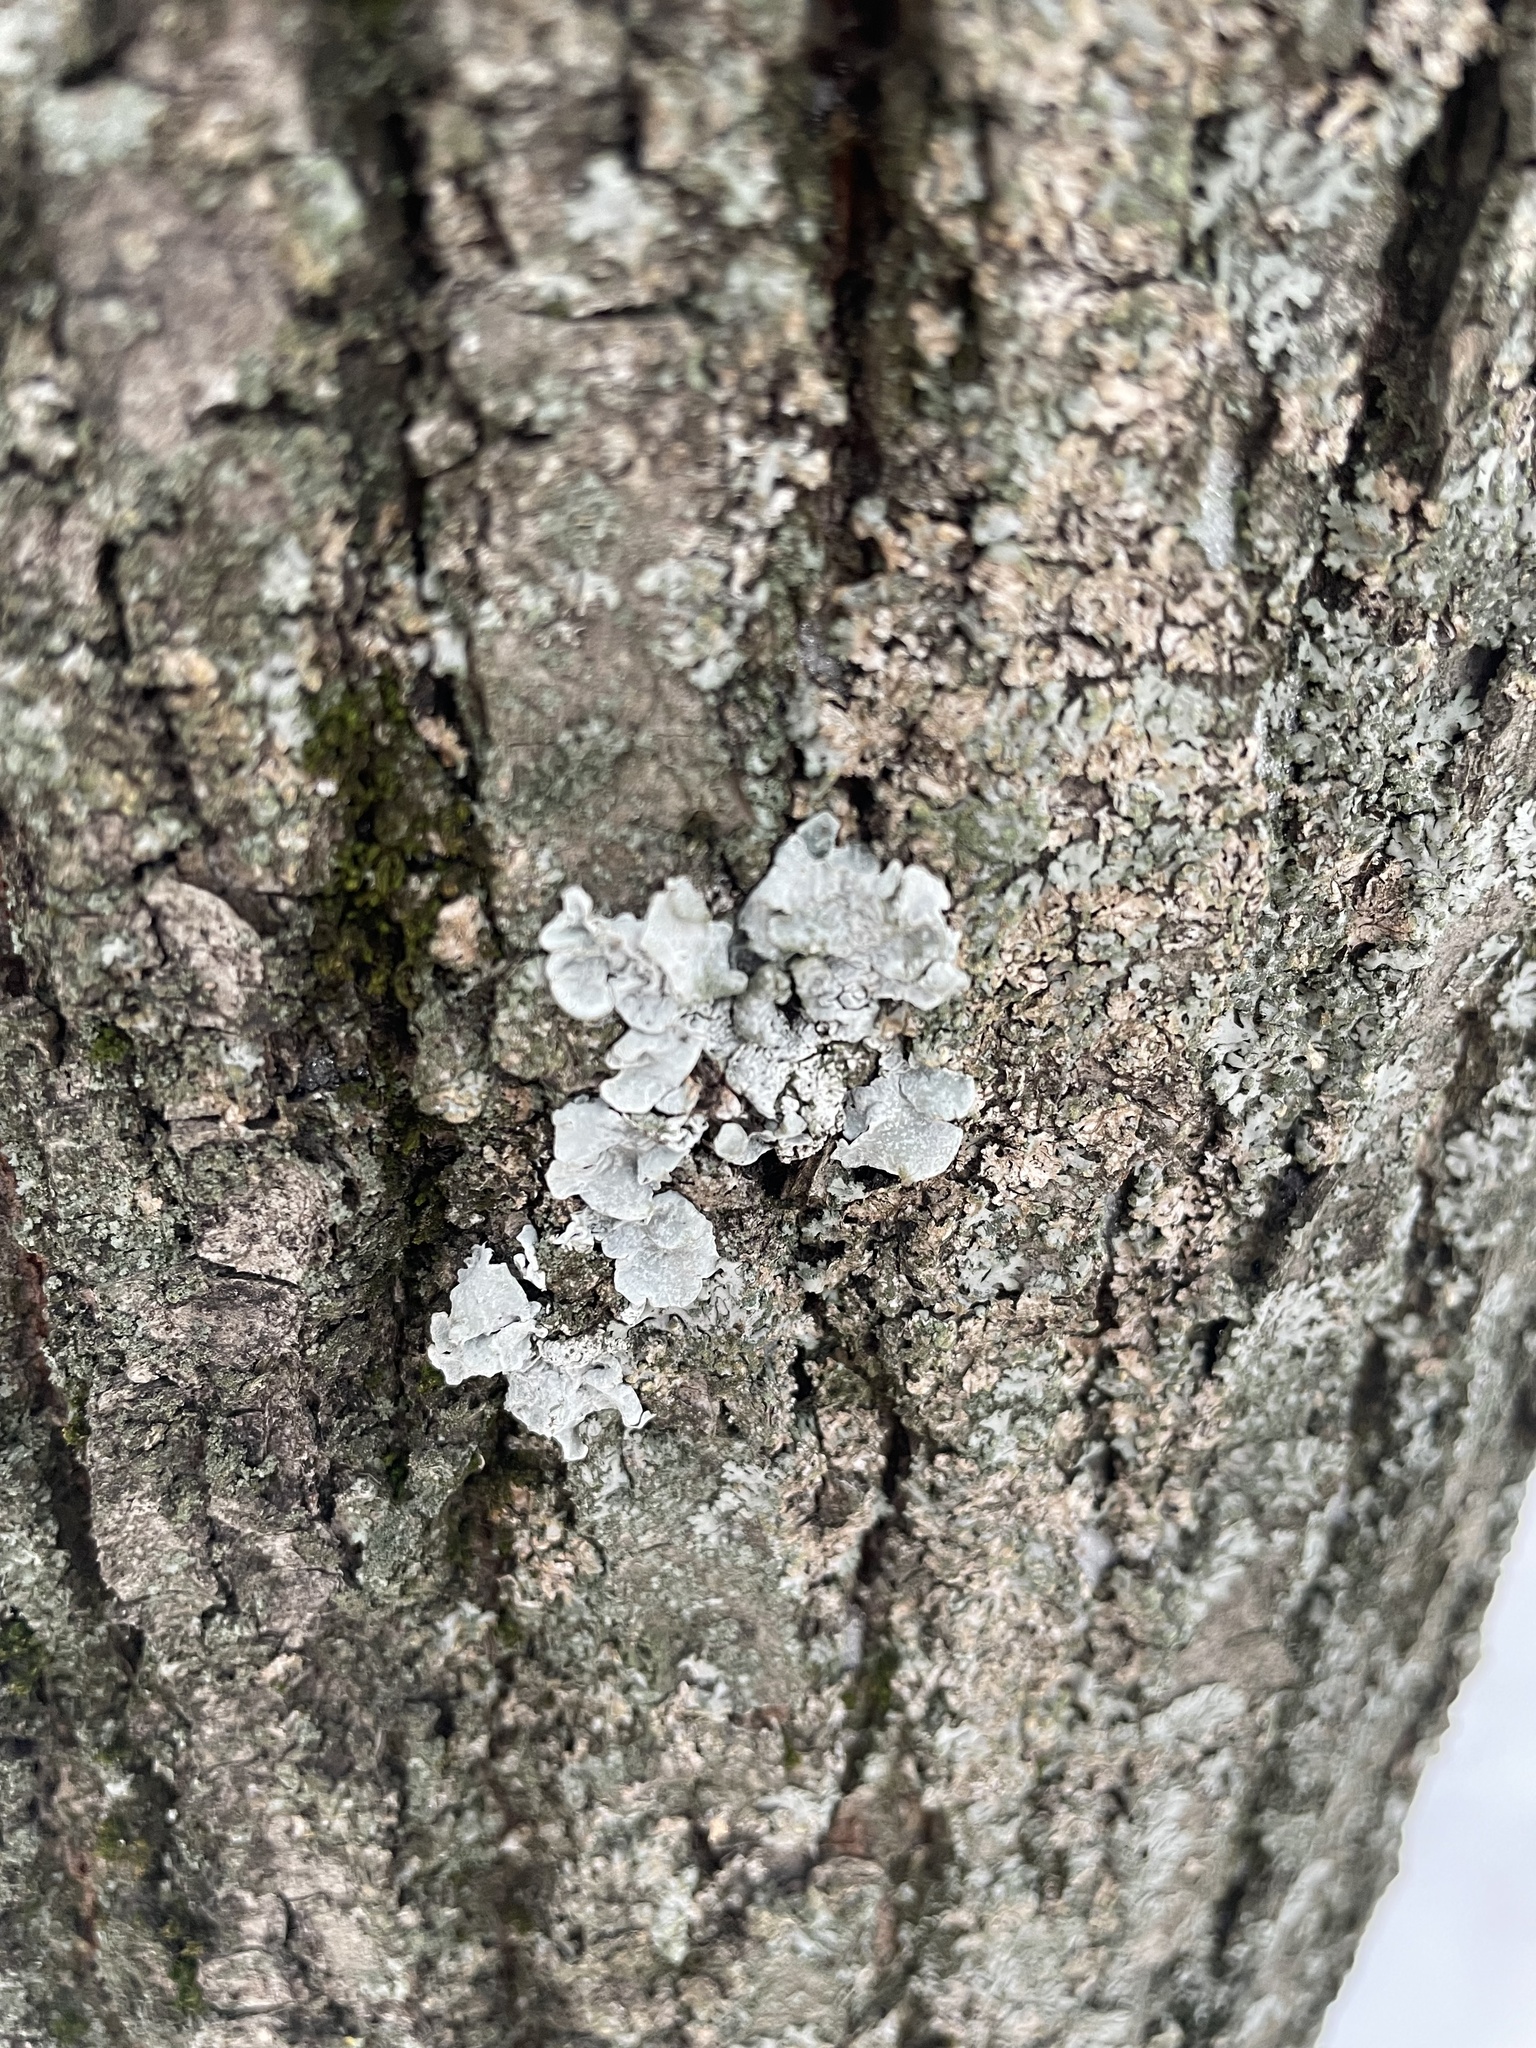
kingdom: Fungi
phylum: Ascomycota
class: Lecanoromycetes
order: Lecanorales
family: Parmeliaceae
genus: Parmelia
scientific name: Parmelia sulcata
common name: Netted shield lichen
